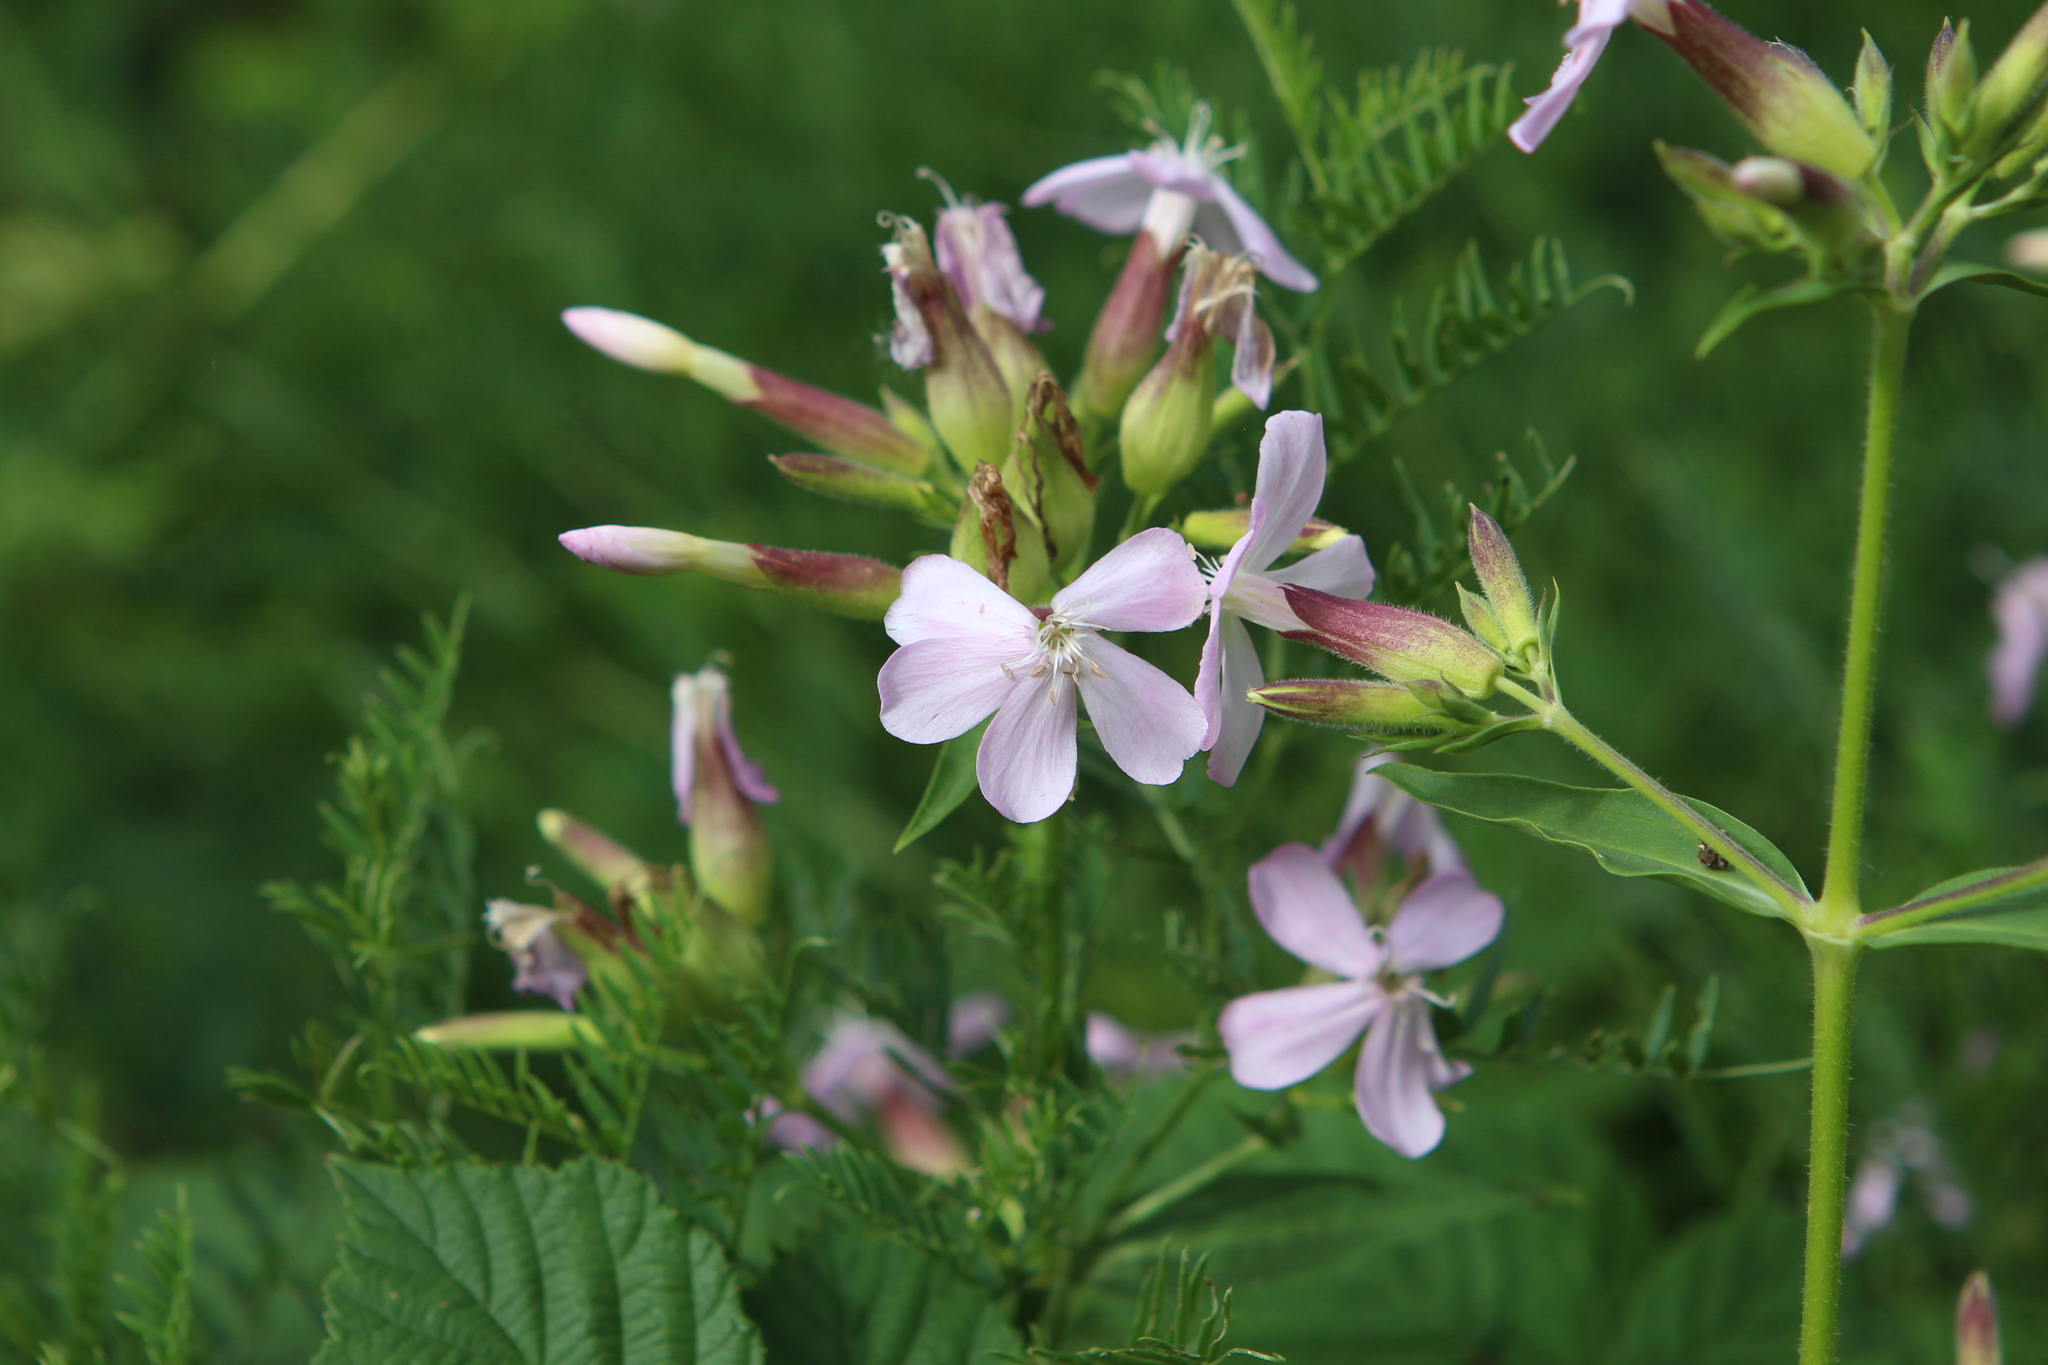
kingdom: Plantae
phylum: Tracheophyta
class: Magnoliopsida
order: Caryophyllales
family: Caryophyllaceae
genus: Saponaria
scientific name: Saponaria officinalis
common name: Soapwort
